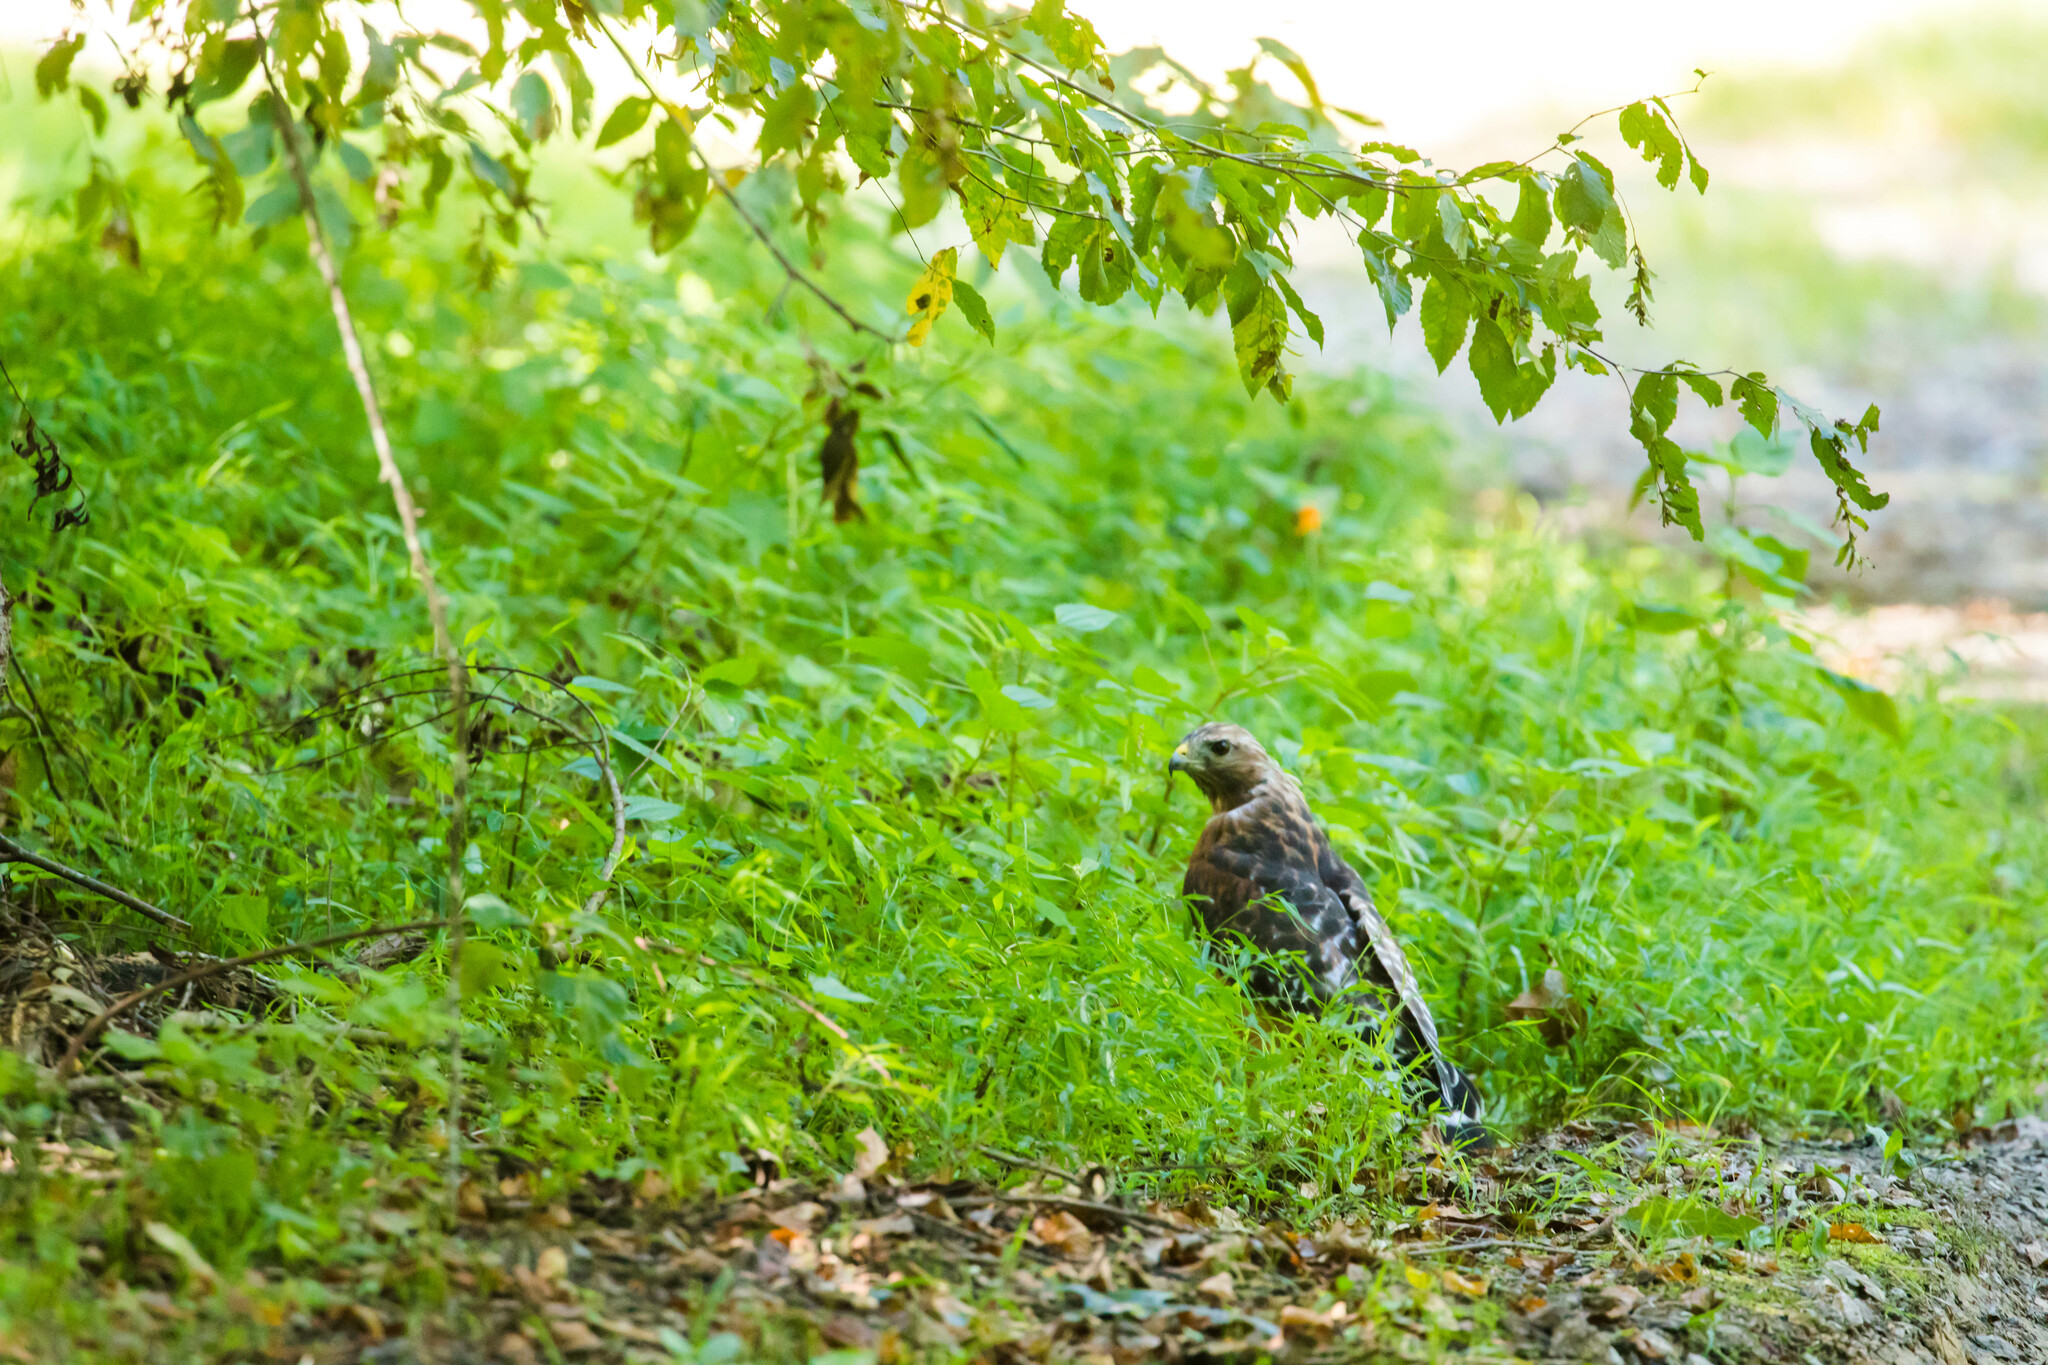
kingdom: Animalia
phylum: Chordata
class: Aves
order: Accipitriformes
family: Accipitridae
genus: Buteo
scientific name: Buteo lineatus
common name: Red-shouldered hawk
